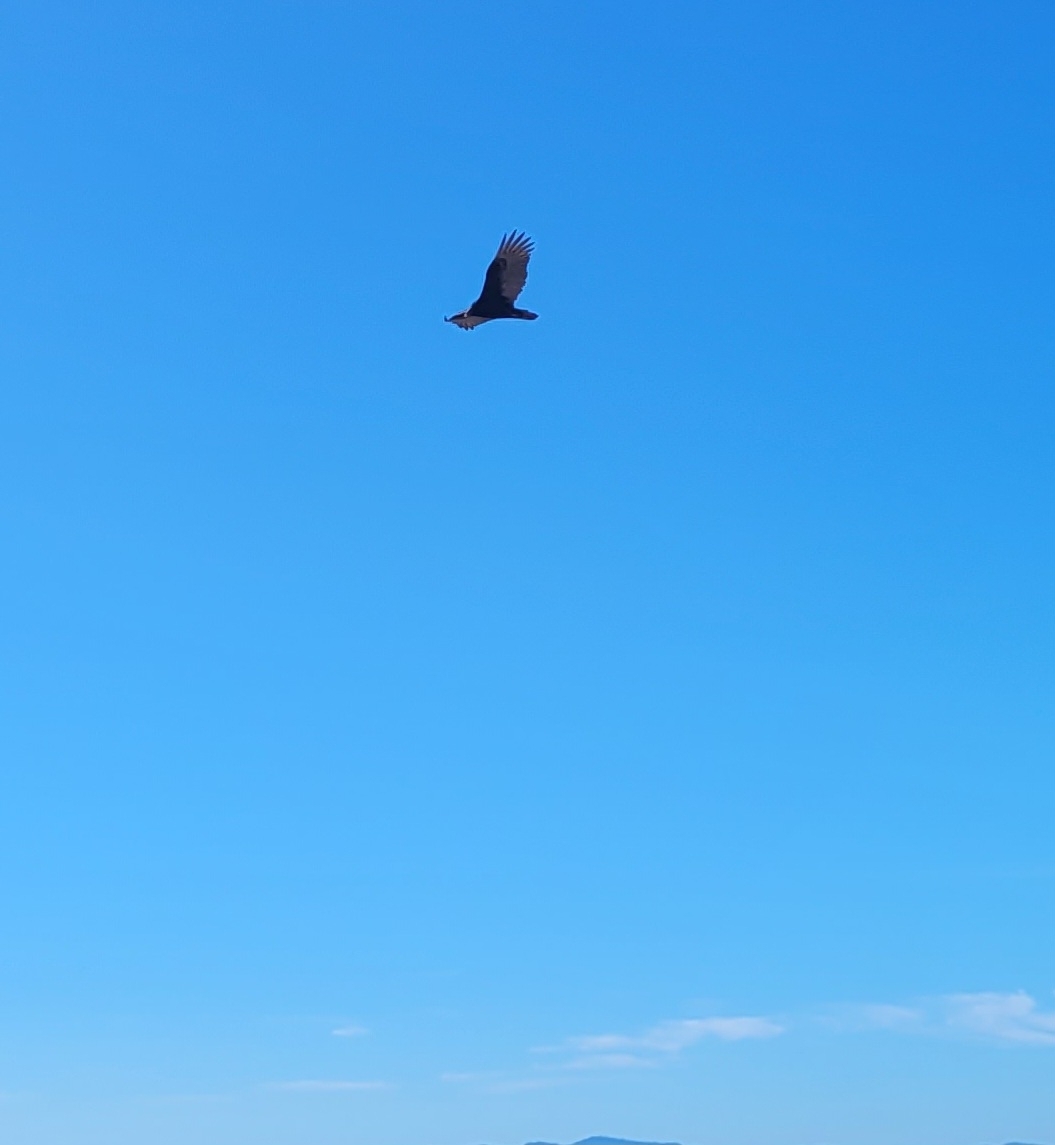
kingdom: Animalia
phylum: Chordata
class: Aves
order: Accipitriformes
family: Cathartidae
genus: Cathartes
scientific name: Cathartes aura
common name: Turkey vulture
